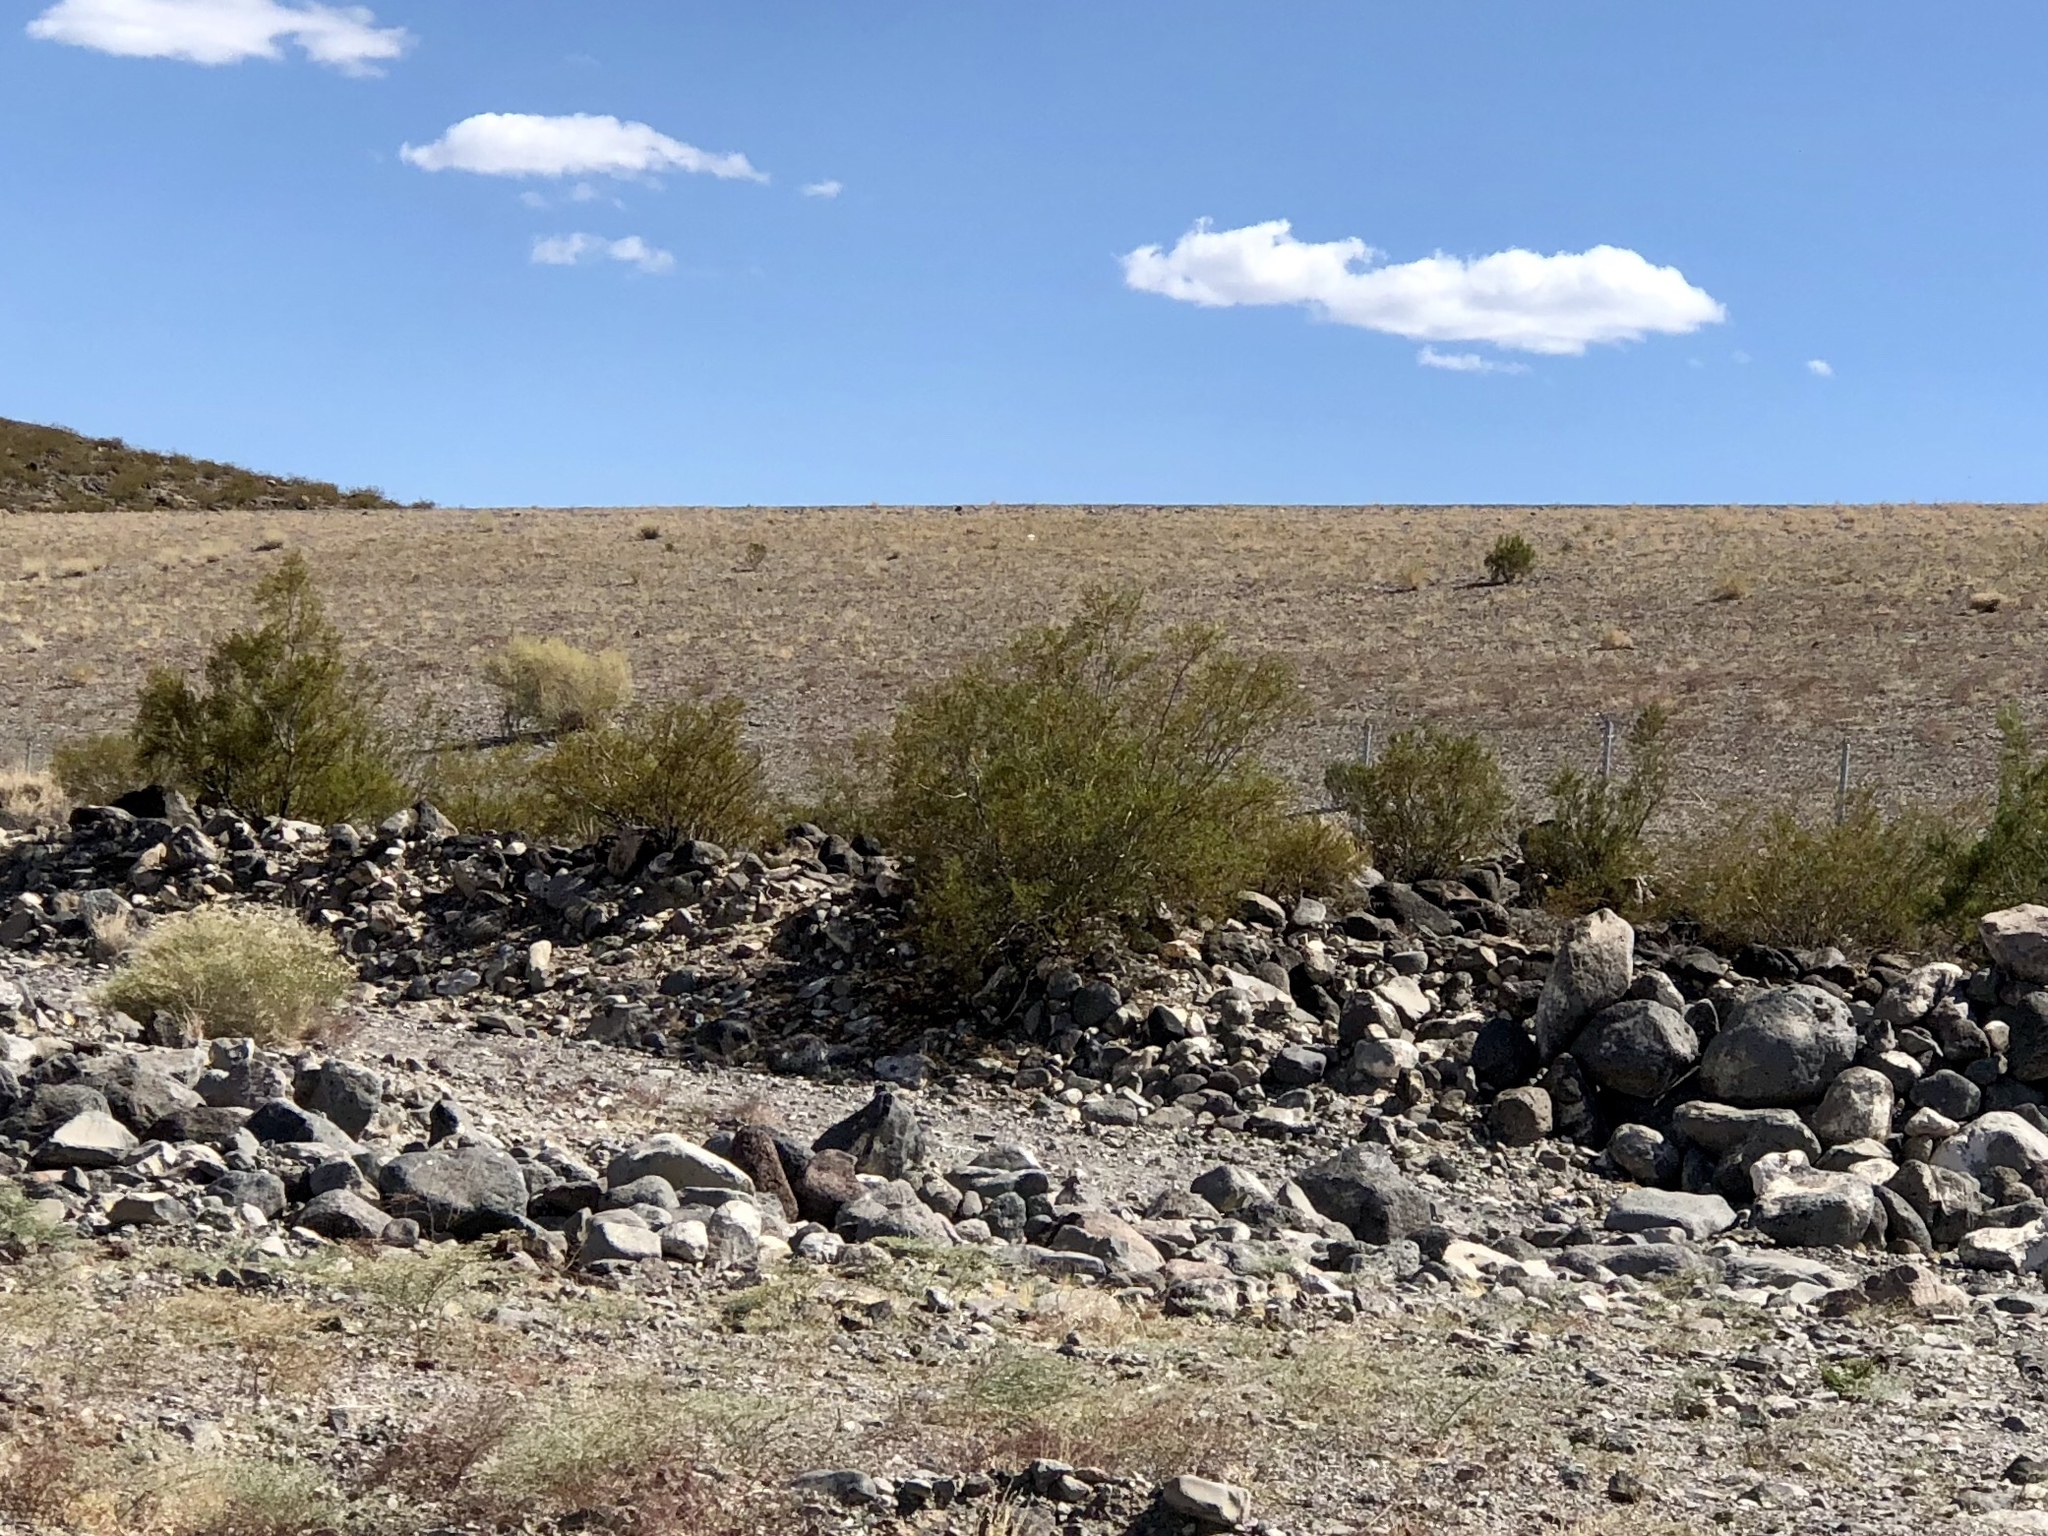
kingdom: Plantae
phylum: Tracheophyta
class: Magnoliopsida
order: Zygophyllales
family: Zygophyllaceae
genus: Larrea
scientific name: Larrea tridentata
